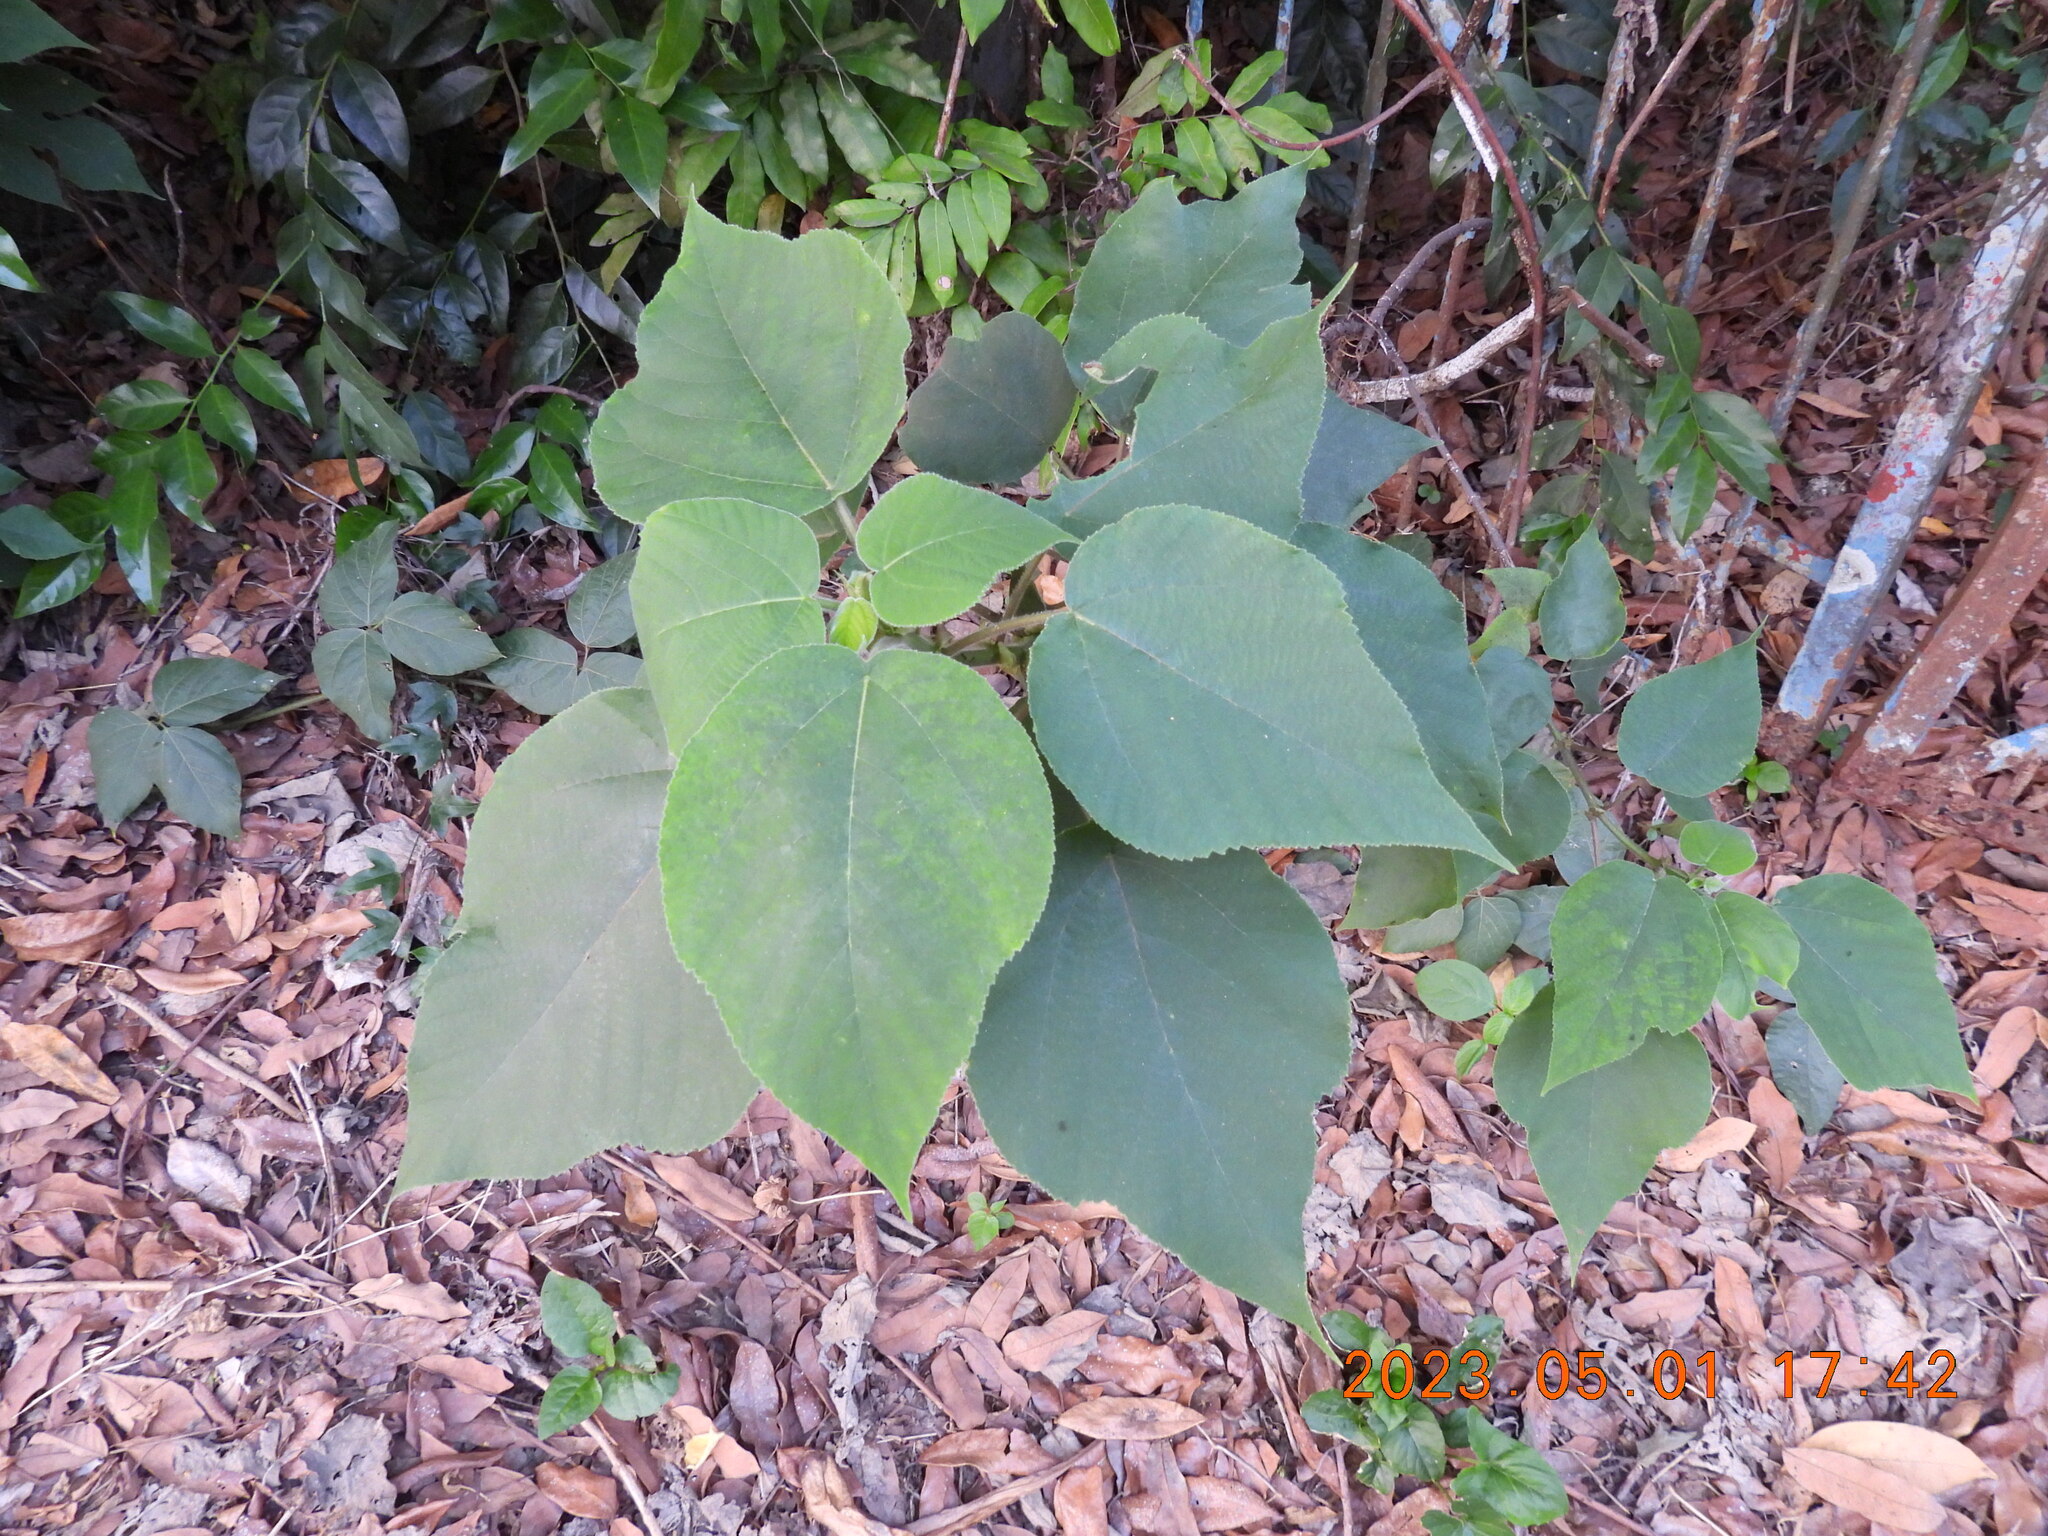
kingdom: Plantae
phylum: Tracheophyta
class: Magnoliopsida
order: Rosales
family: Moraceae
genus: Broussonetia
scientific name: Broussonetia papyrifera
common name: Paper mulberry
